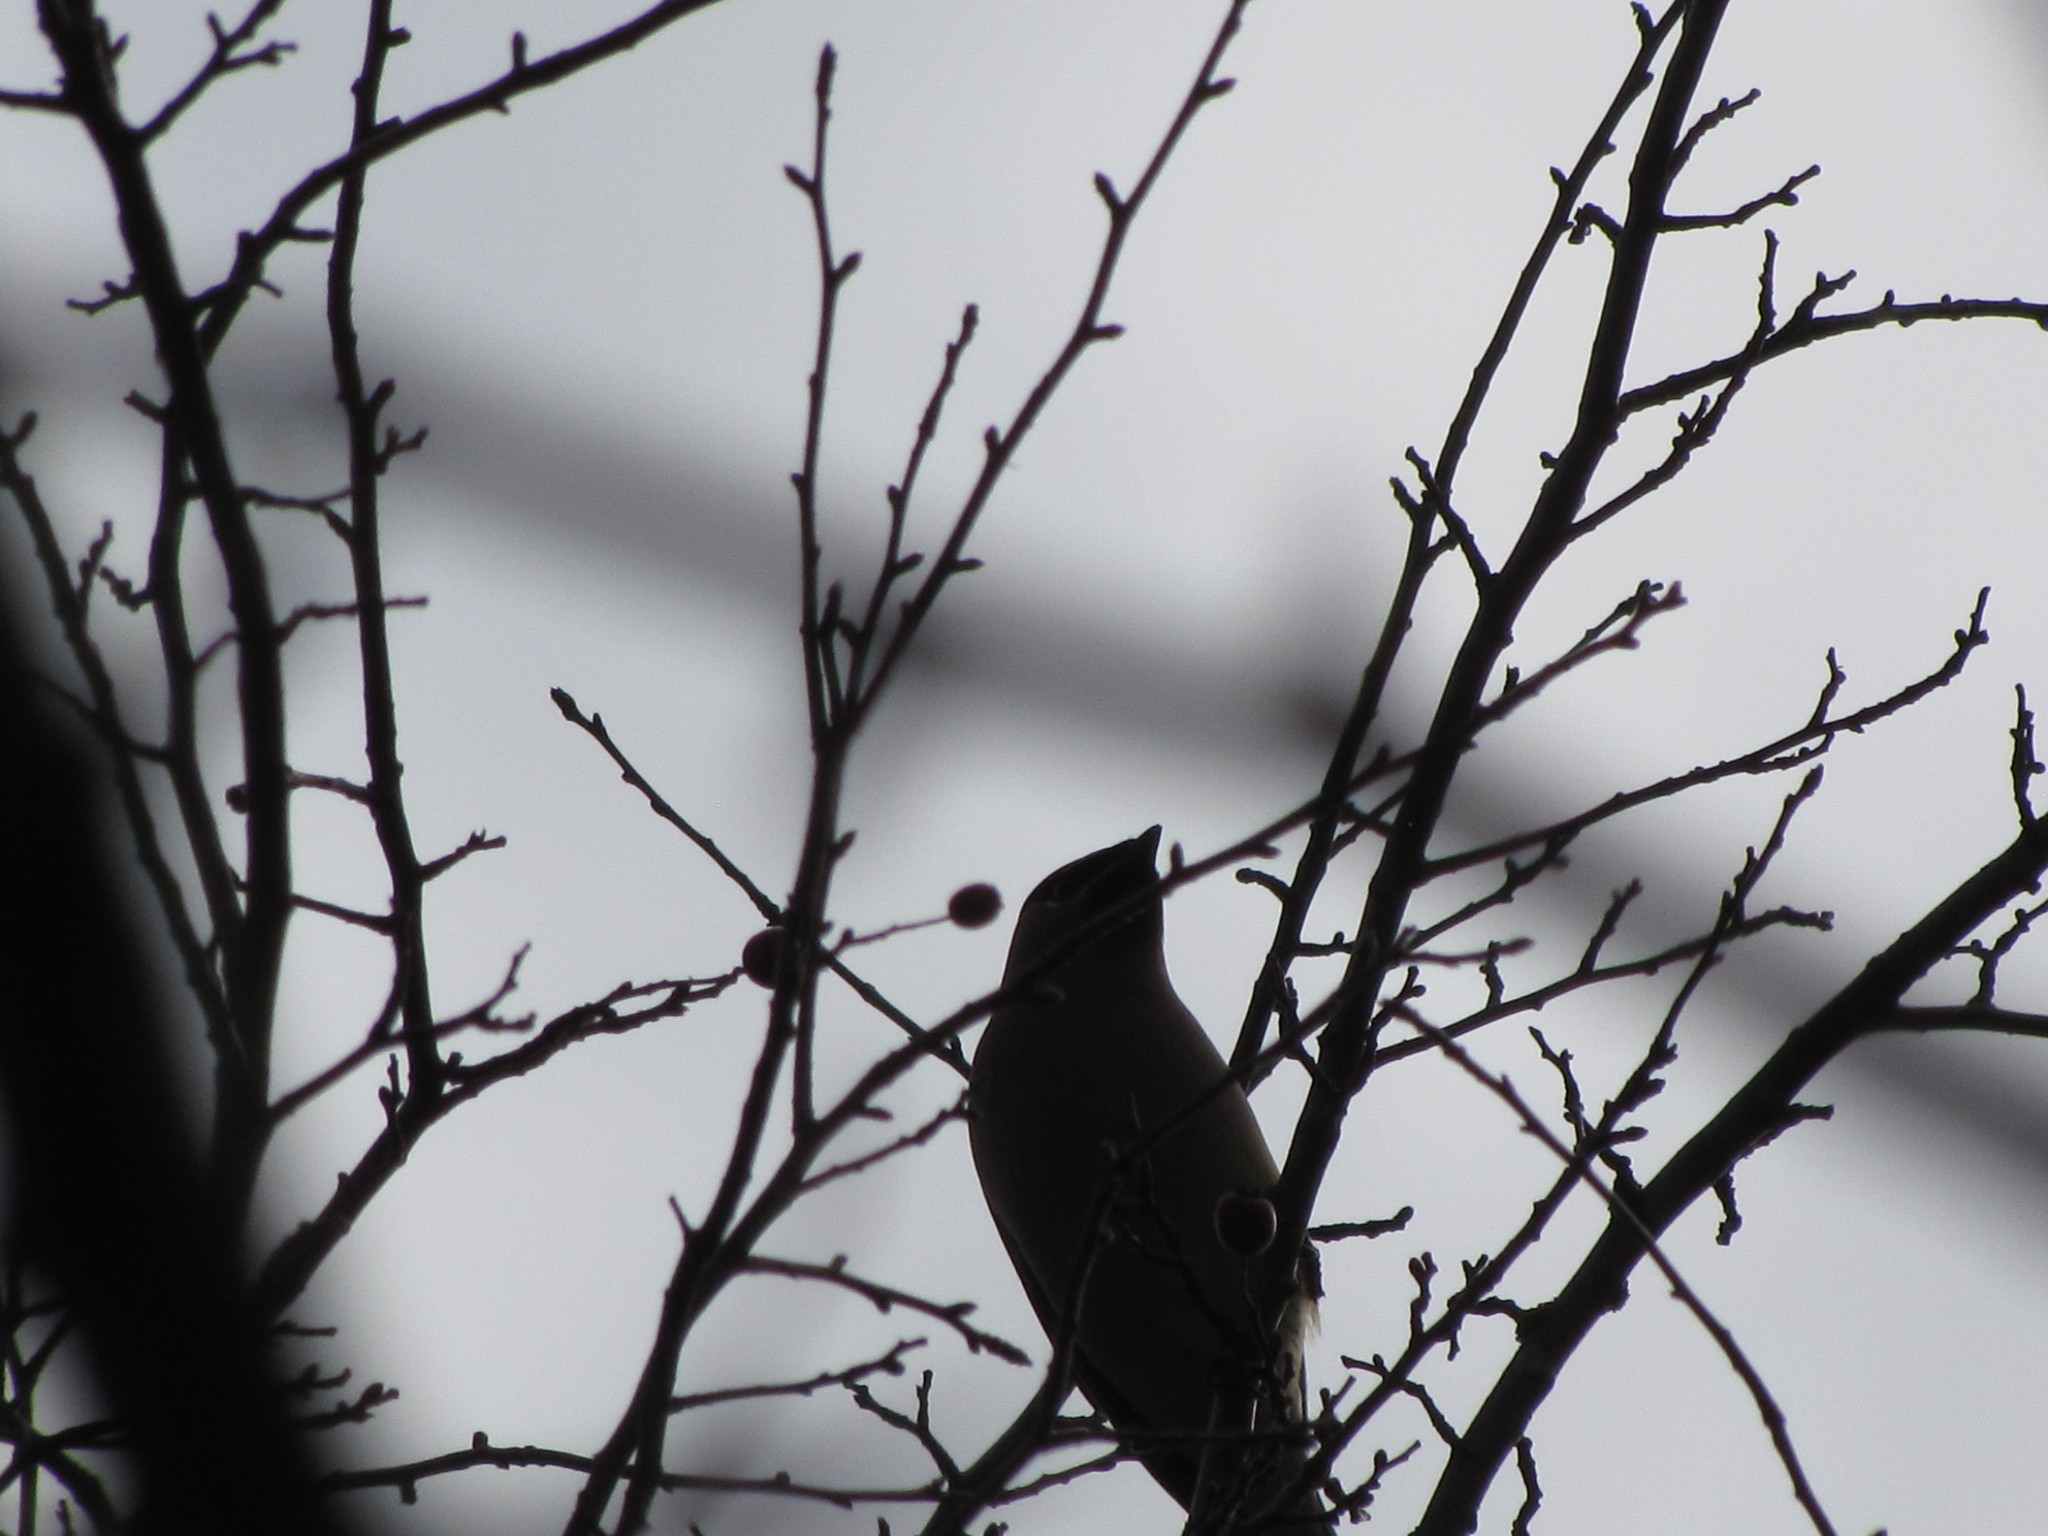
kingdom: Animalia
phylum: Chordata
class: Aves
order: Passeriformes
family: Bombycillidae
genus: Bombycilla
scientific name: Bombycilla cedrorum
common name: Cedar waxwing
